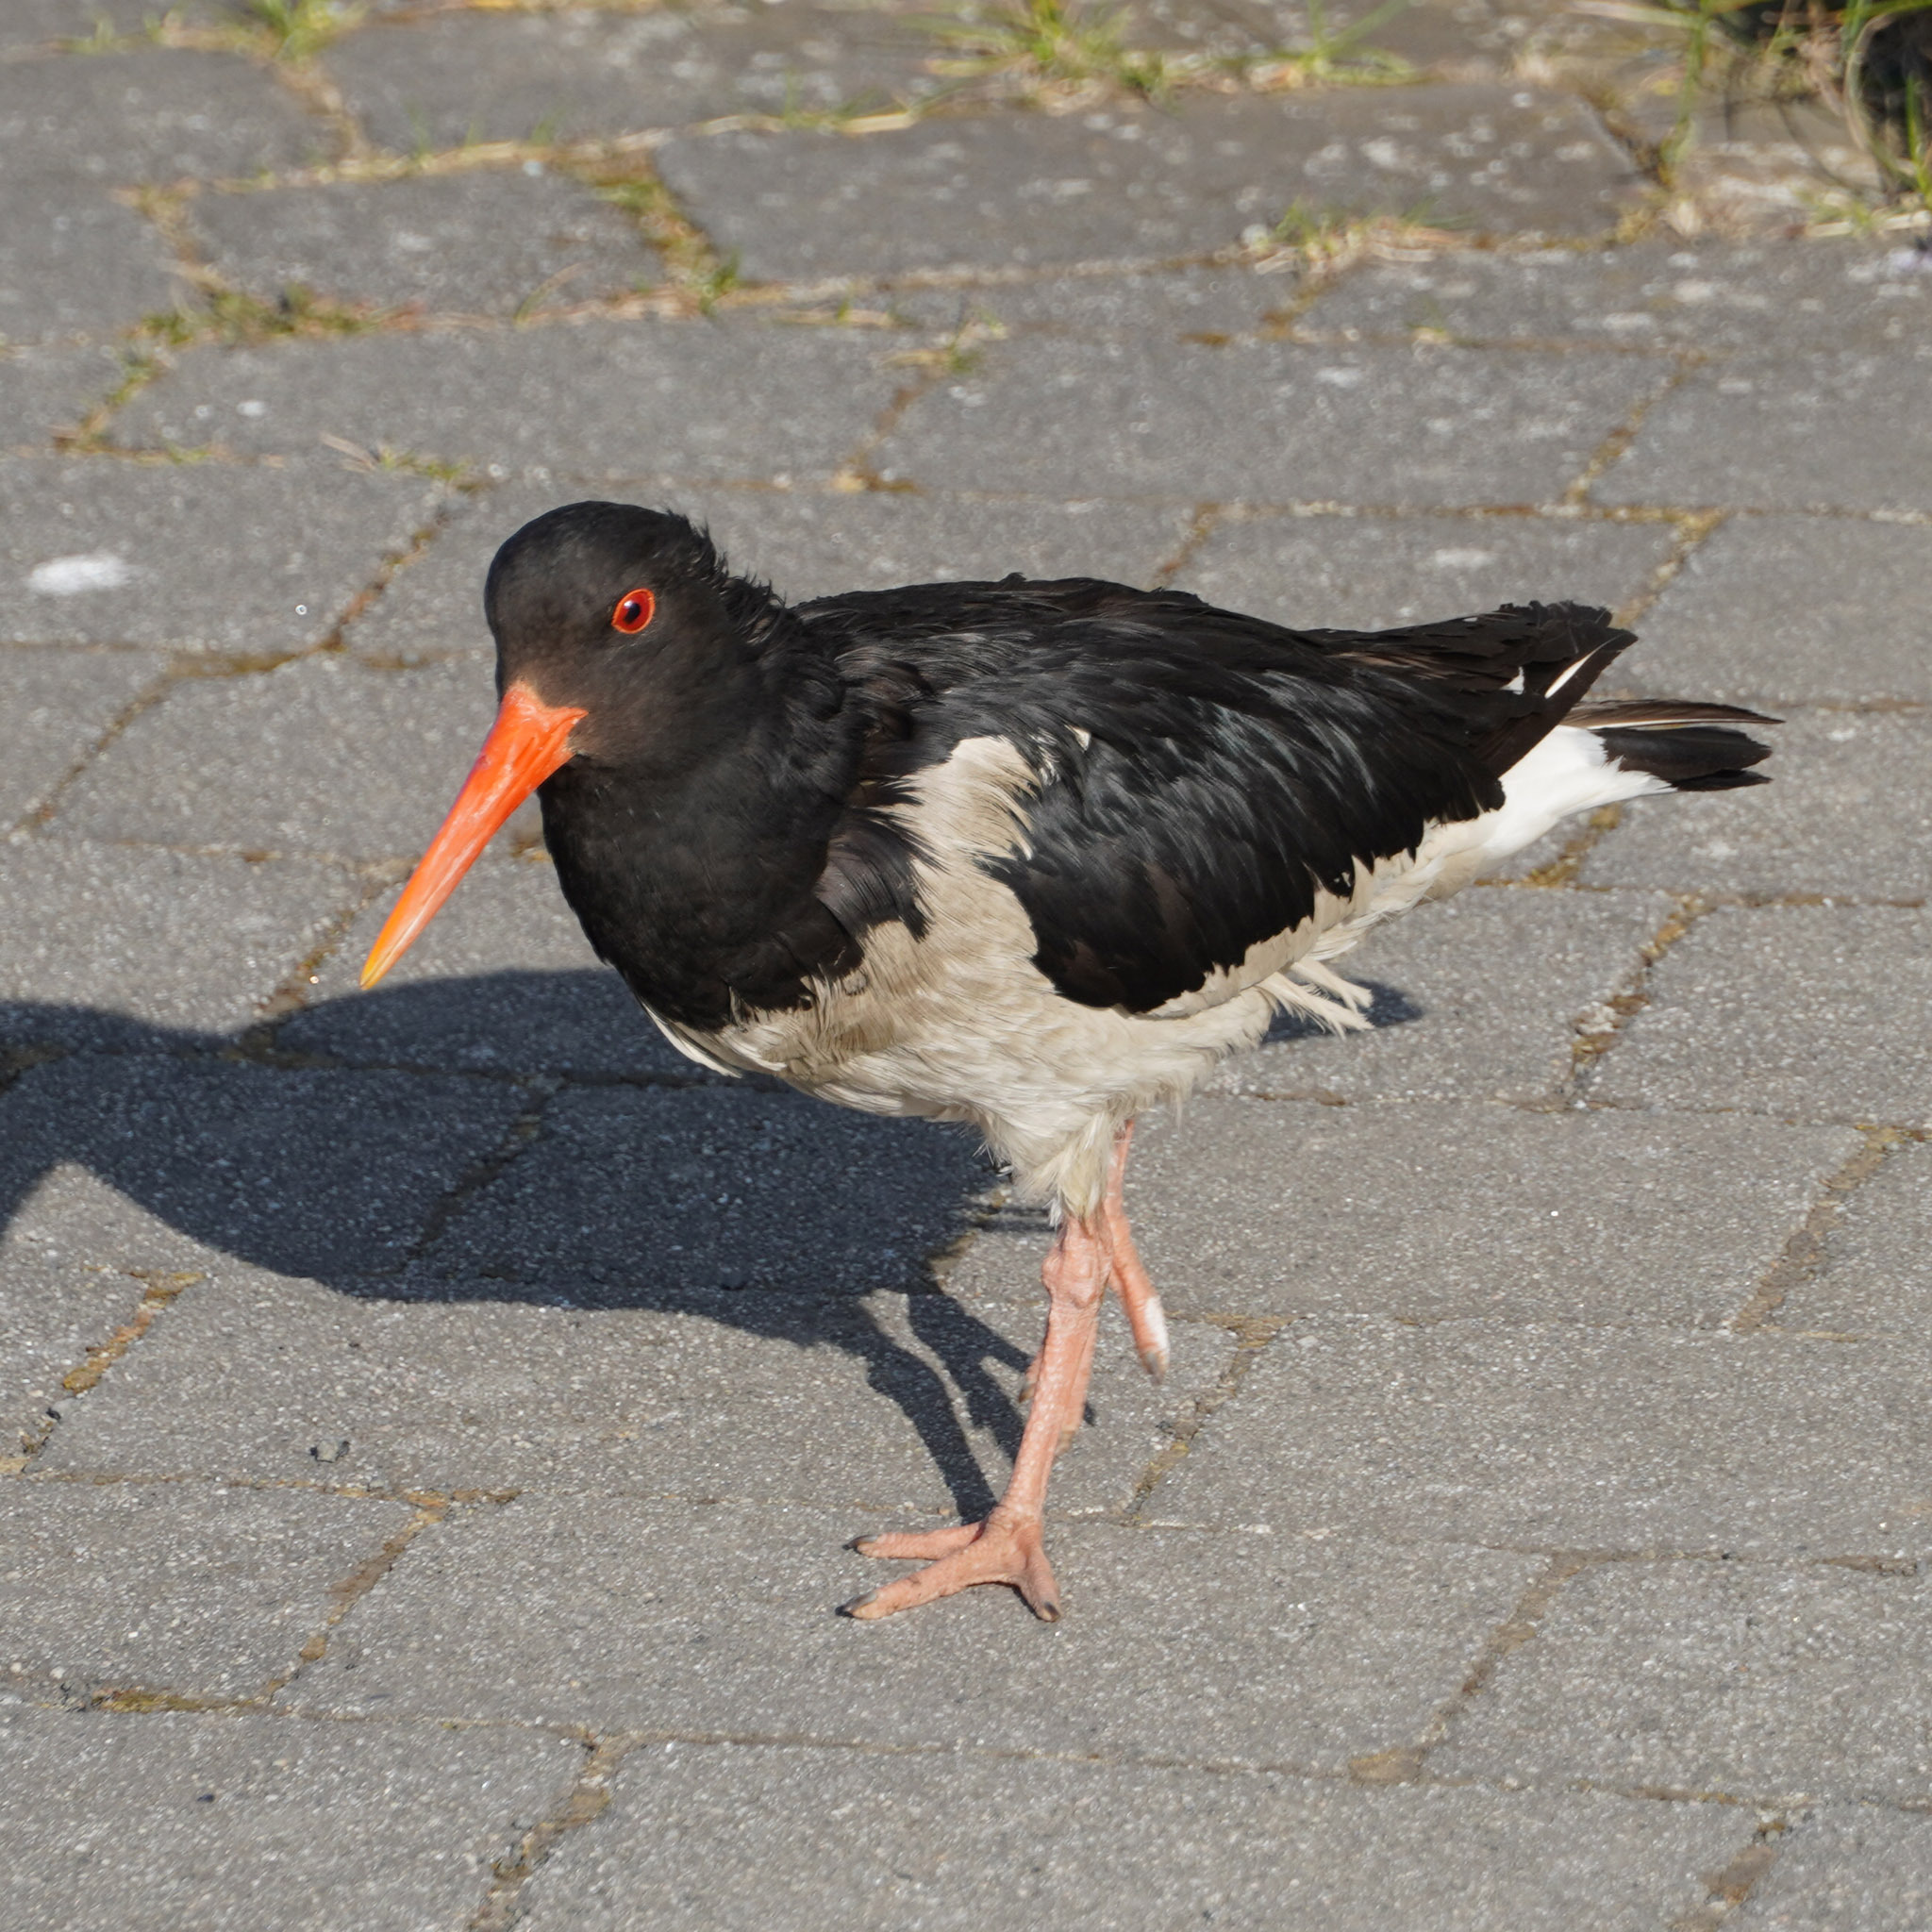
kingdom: Animalia
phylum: Chordata
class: Aves
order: Charadriiformes
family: Haematopodidae
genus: Haematopus
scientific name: Haematopus ostralegus
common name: Eurasian oystercatcher
